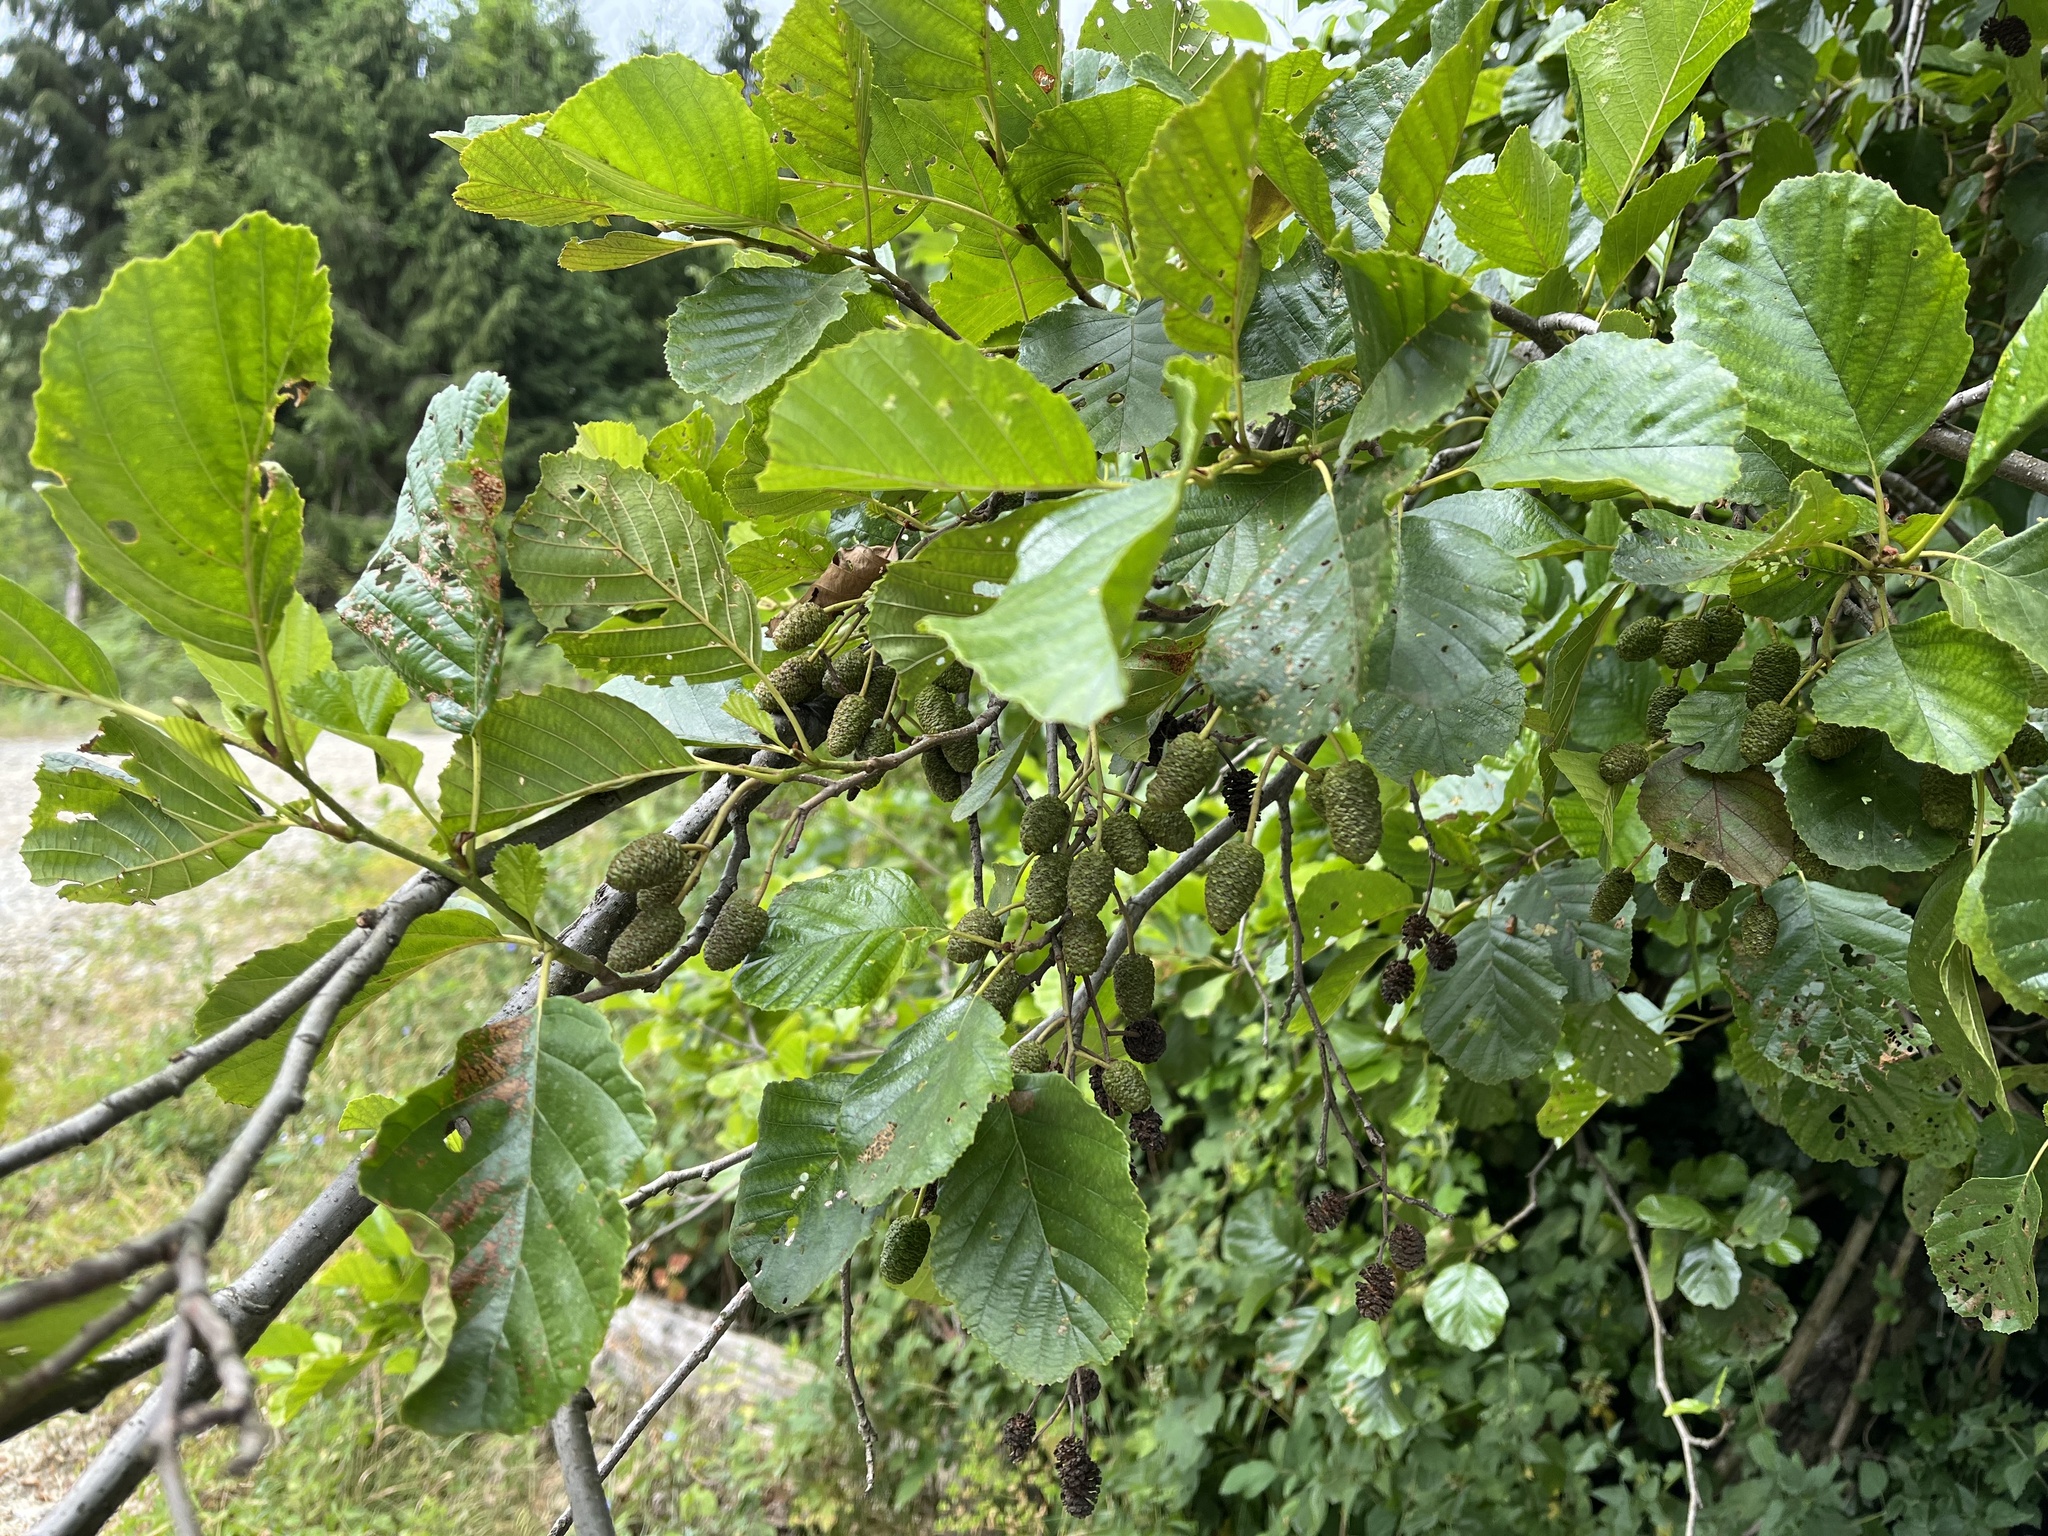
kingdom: Plantae
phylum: Tracheophyta
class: Magnoliopsida
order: Fagales
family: Betulaceae
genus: Alnus
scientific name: Alnus glutinosa
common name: Black alder
